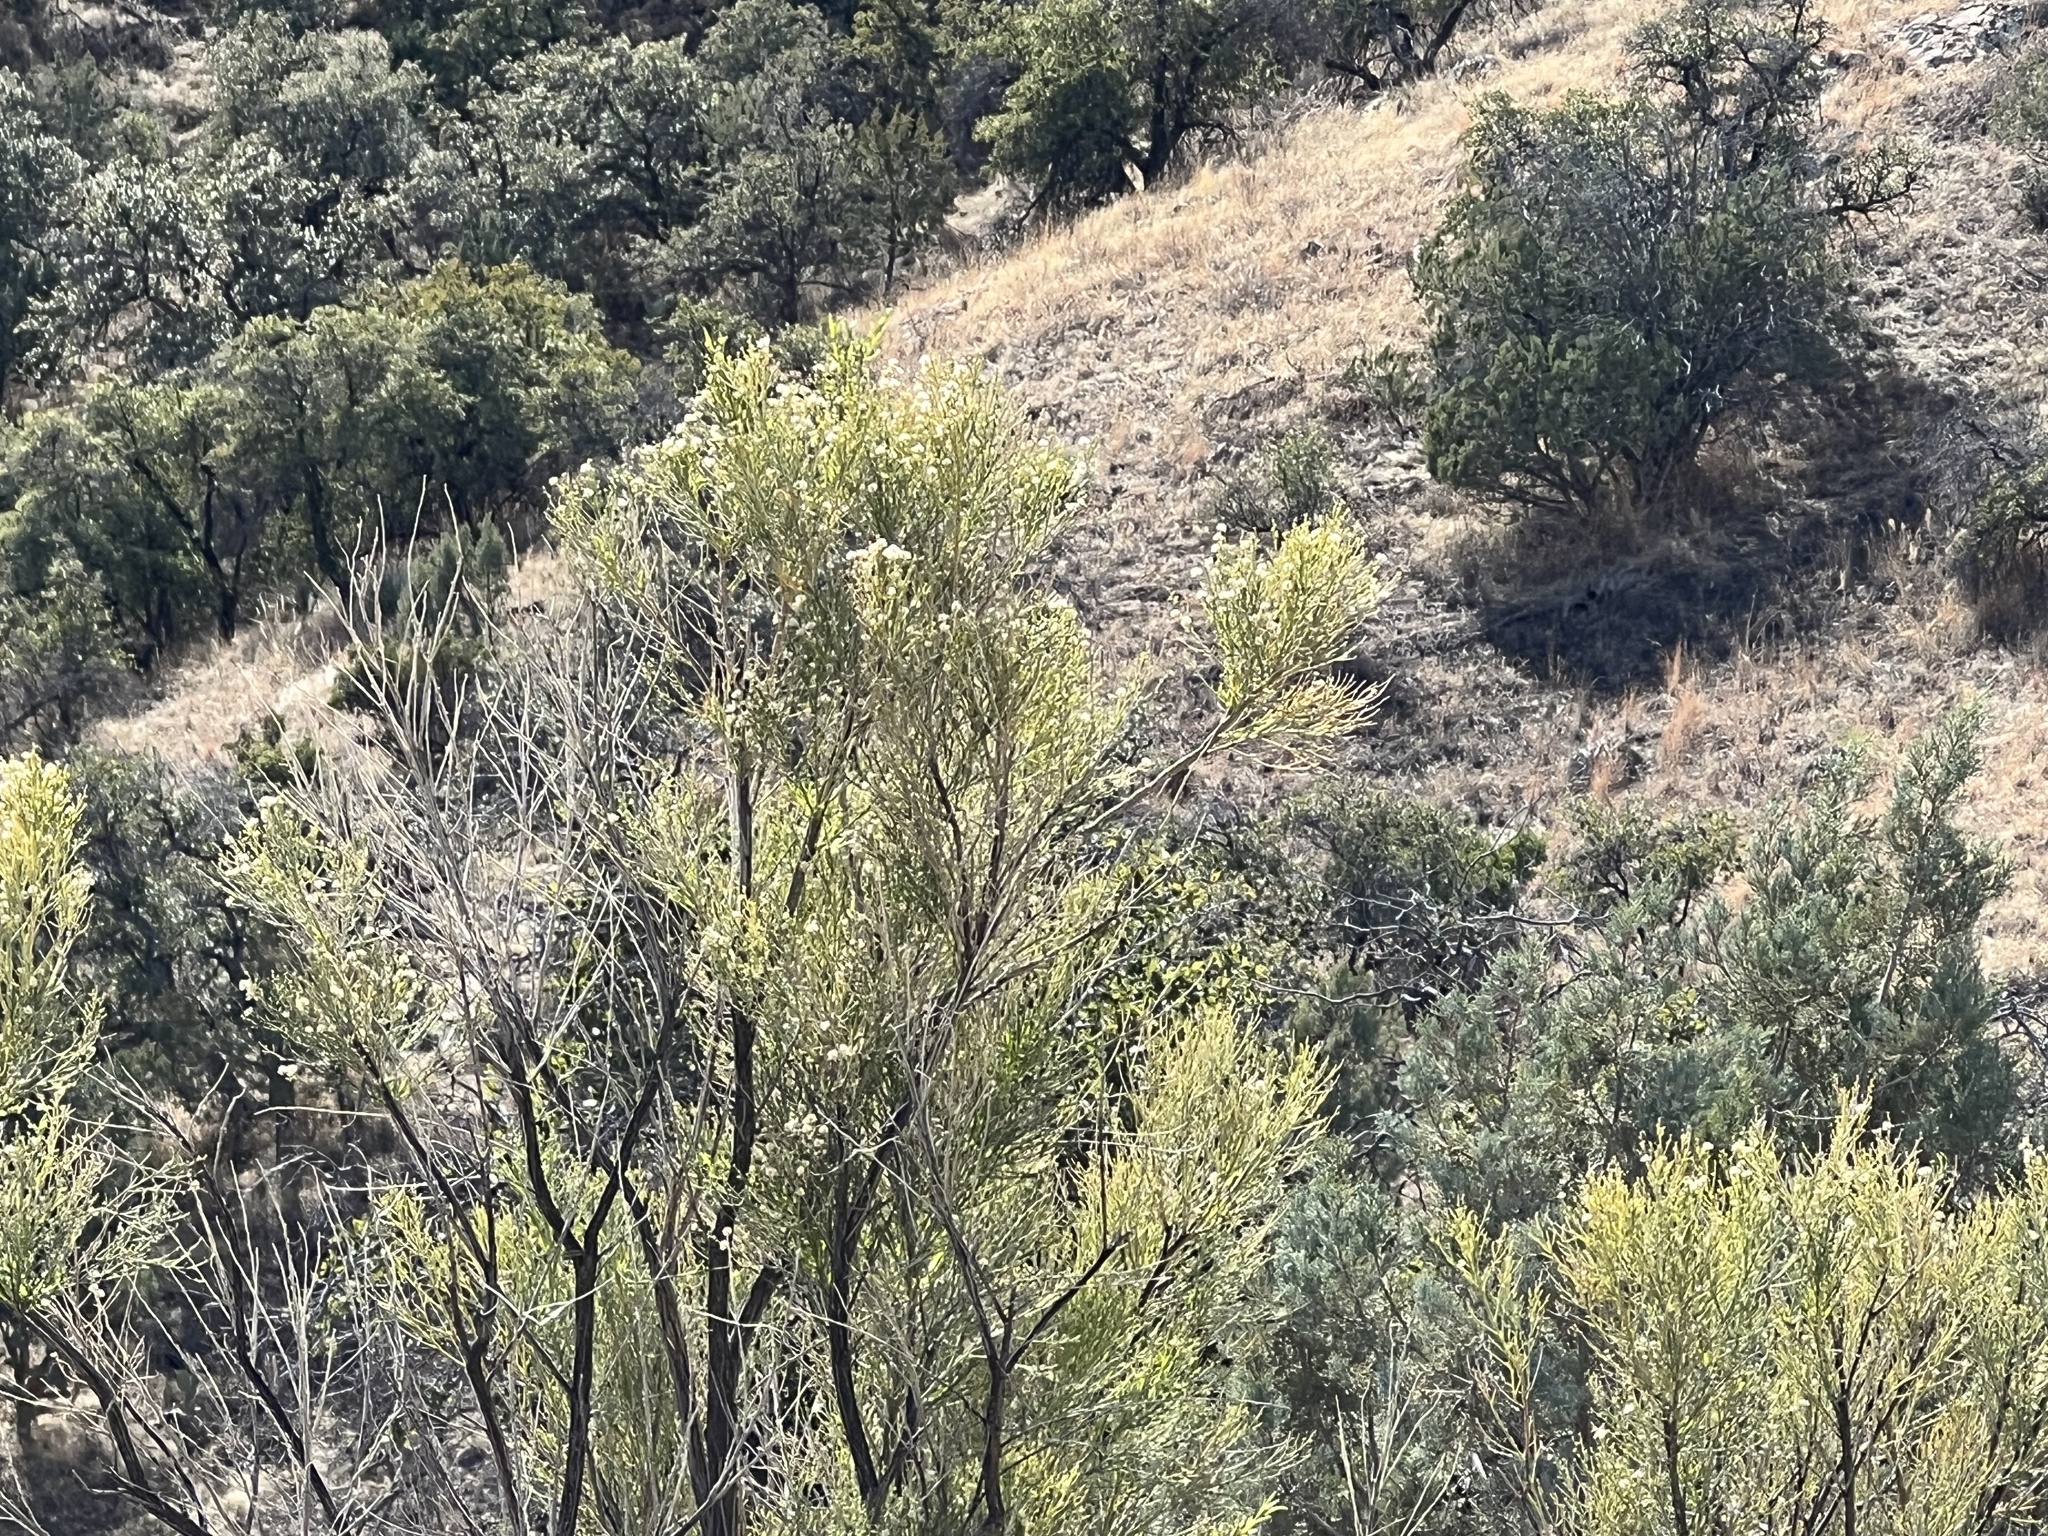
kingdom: Plantae
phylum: Tracheophyta
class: Magnoliopsida
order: Asterales
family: Asteraceae
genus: Baccharis
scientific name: Baccharis sarothroides
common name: Desert-broom
